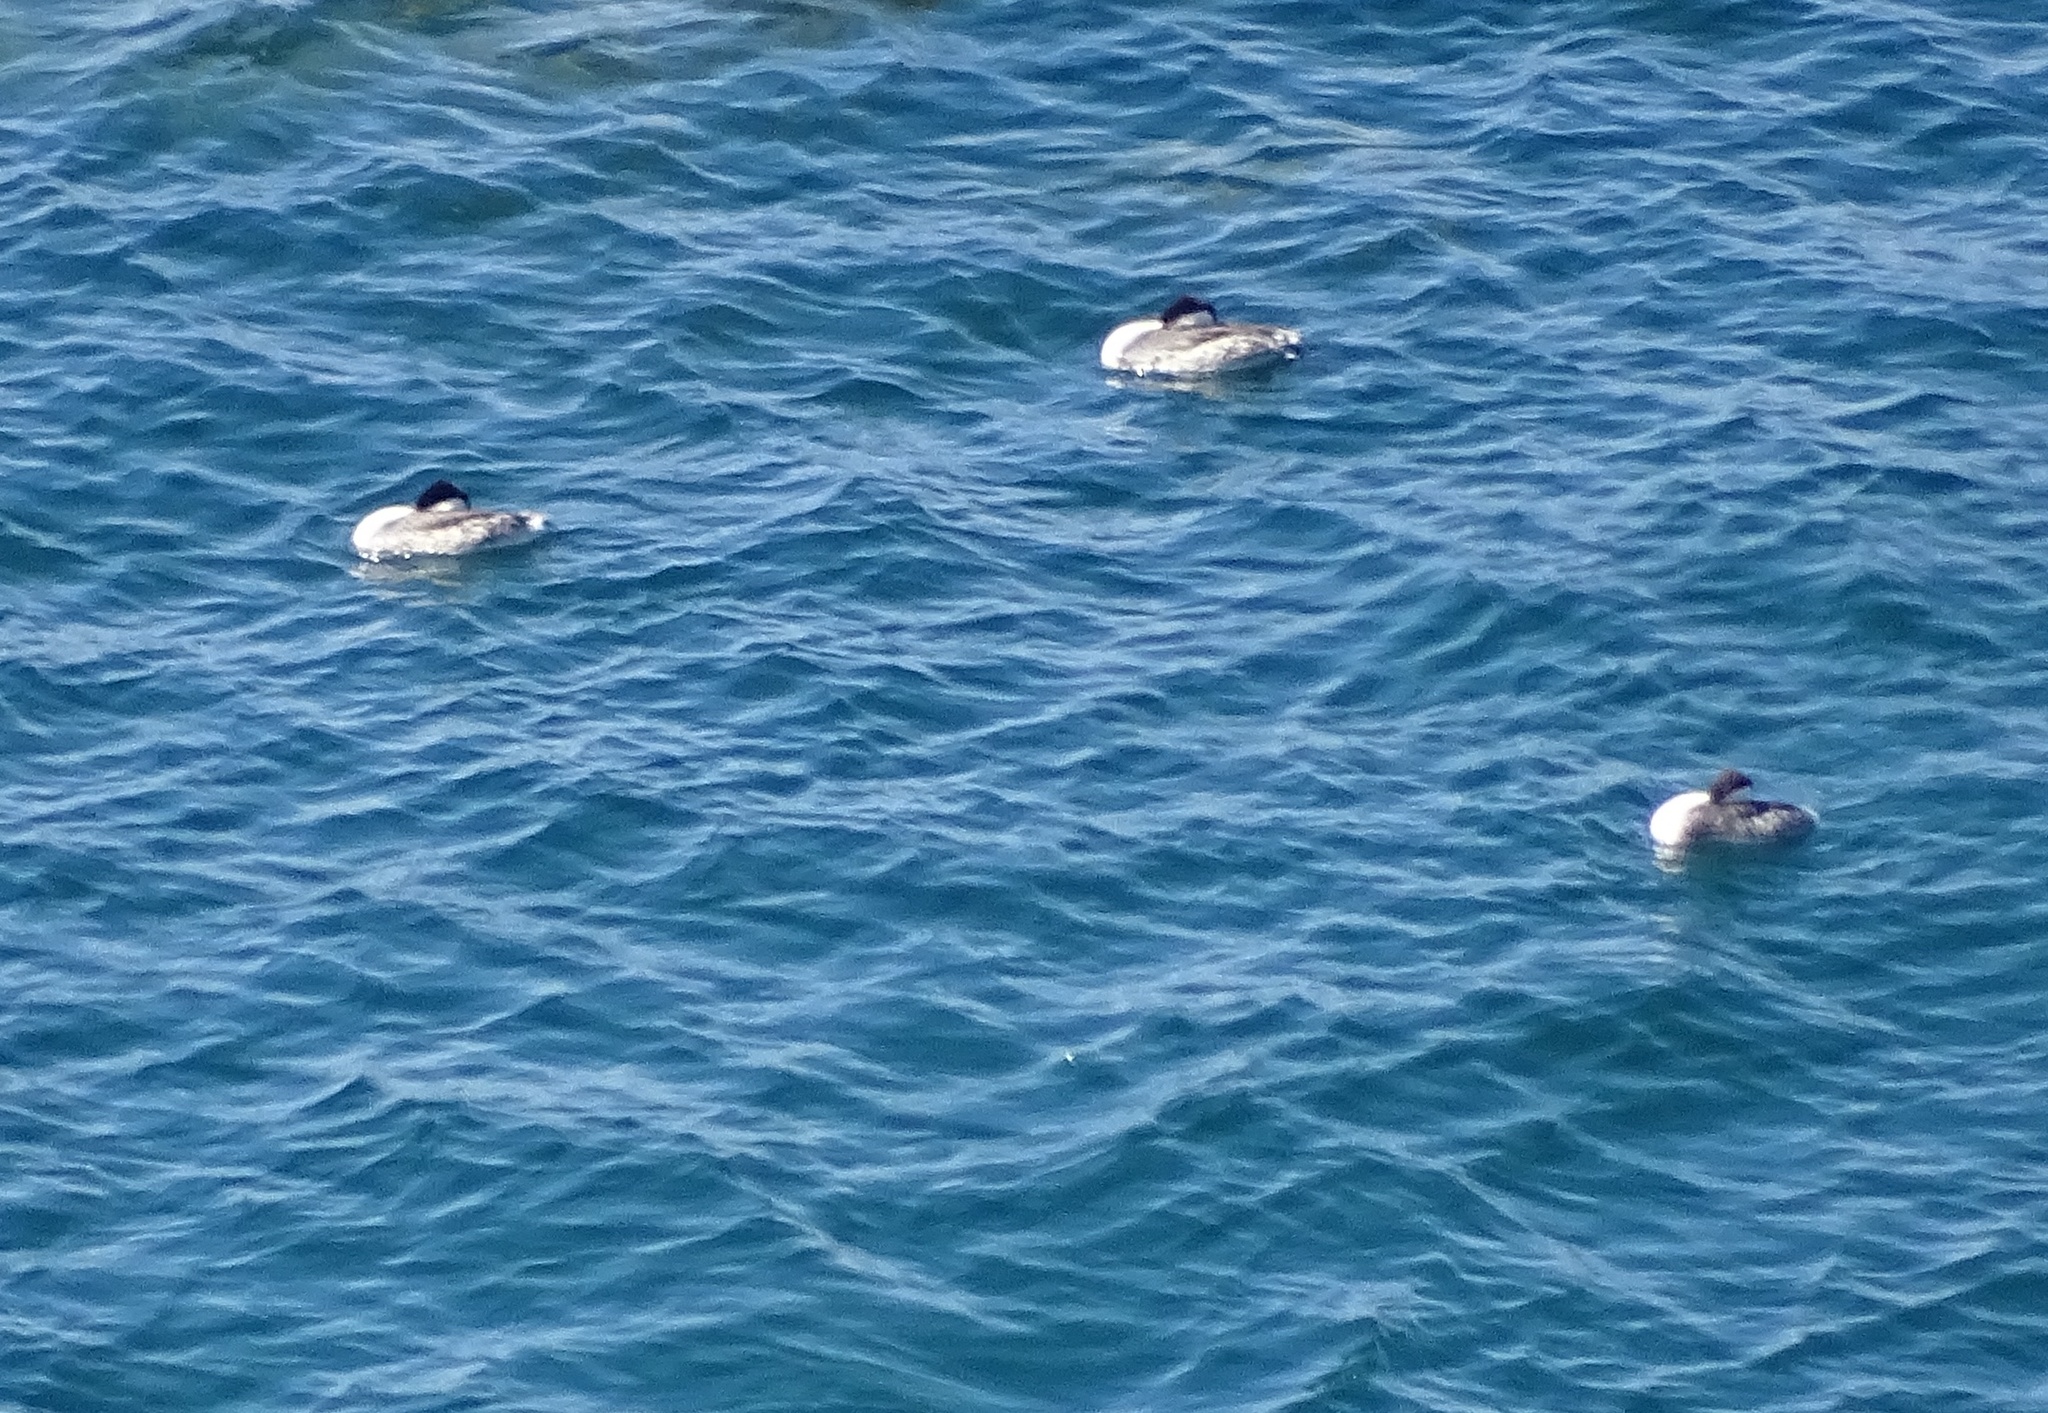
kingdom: Animalia
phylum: Chordata
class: Aves
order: Podicipediformes
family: Podicipedidae
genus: Aechmophorus
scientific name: Aechmophorus
